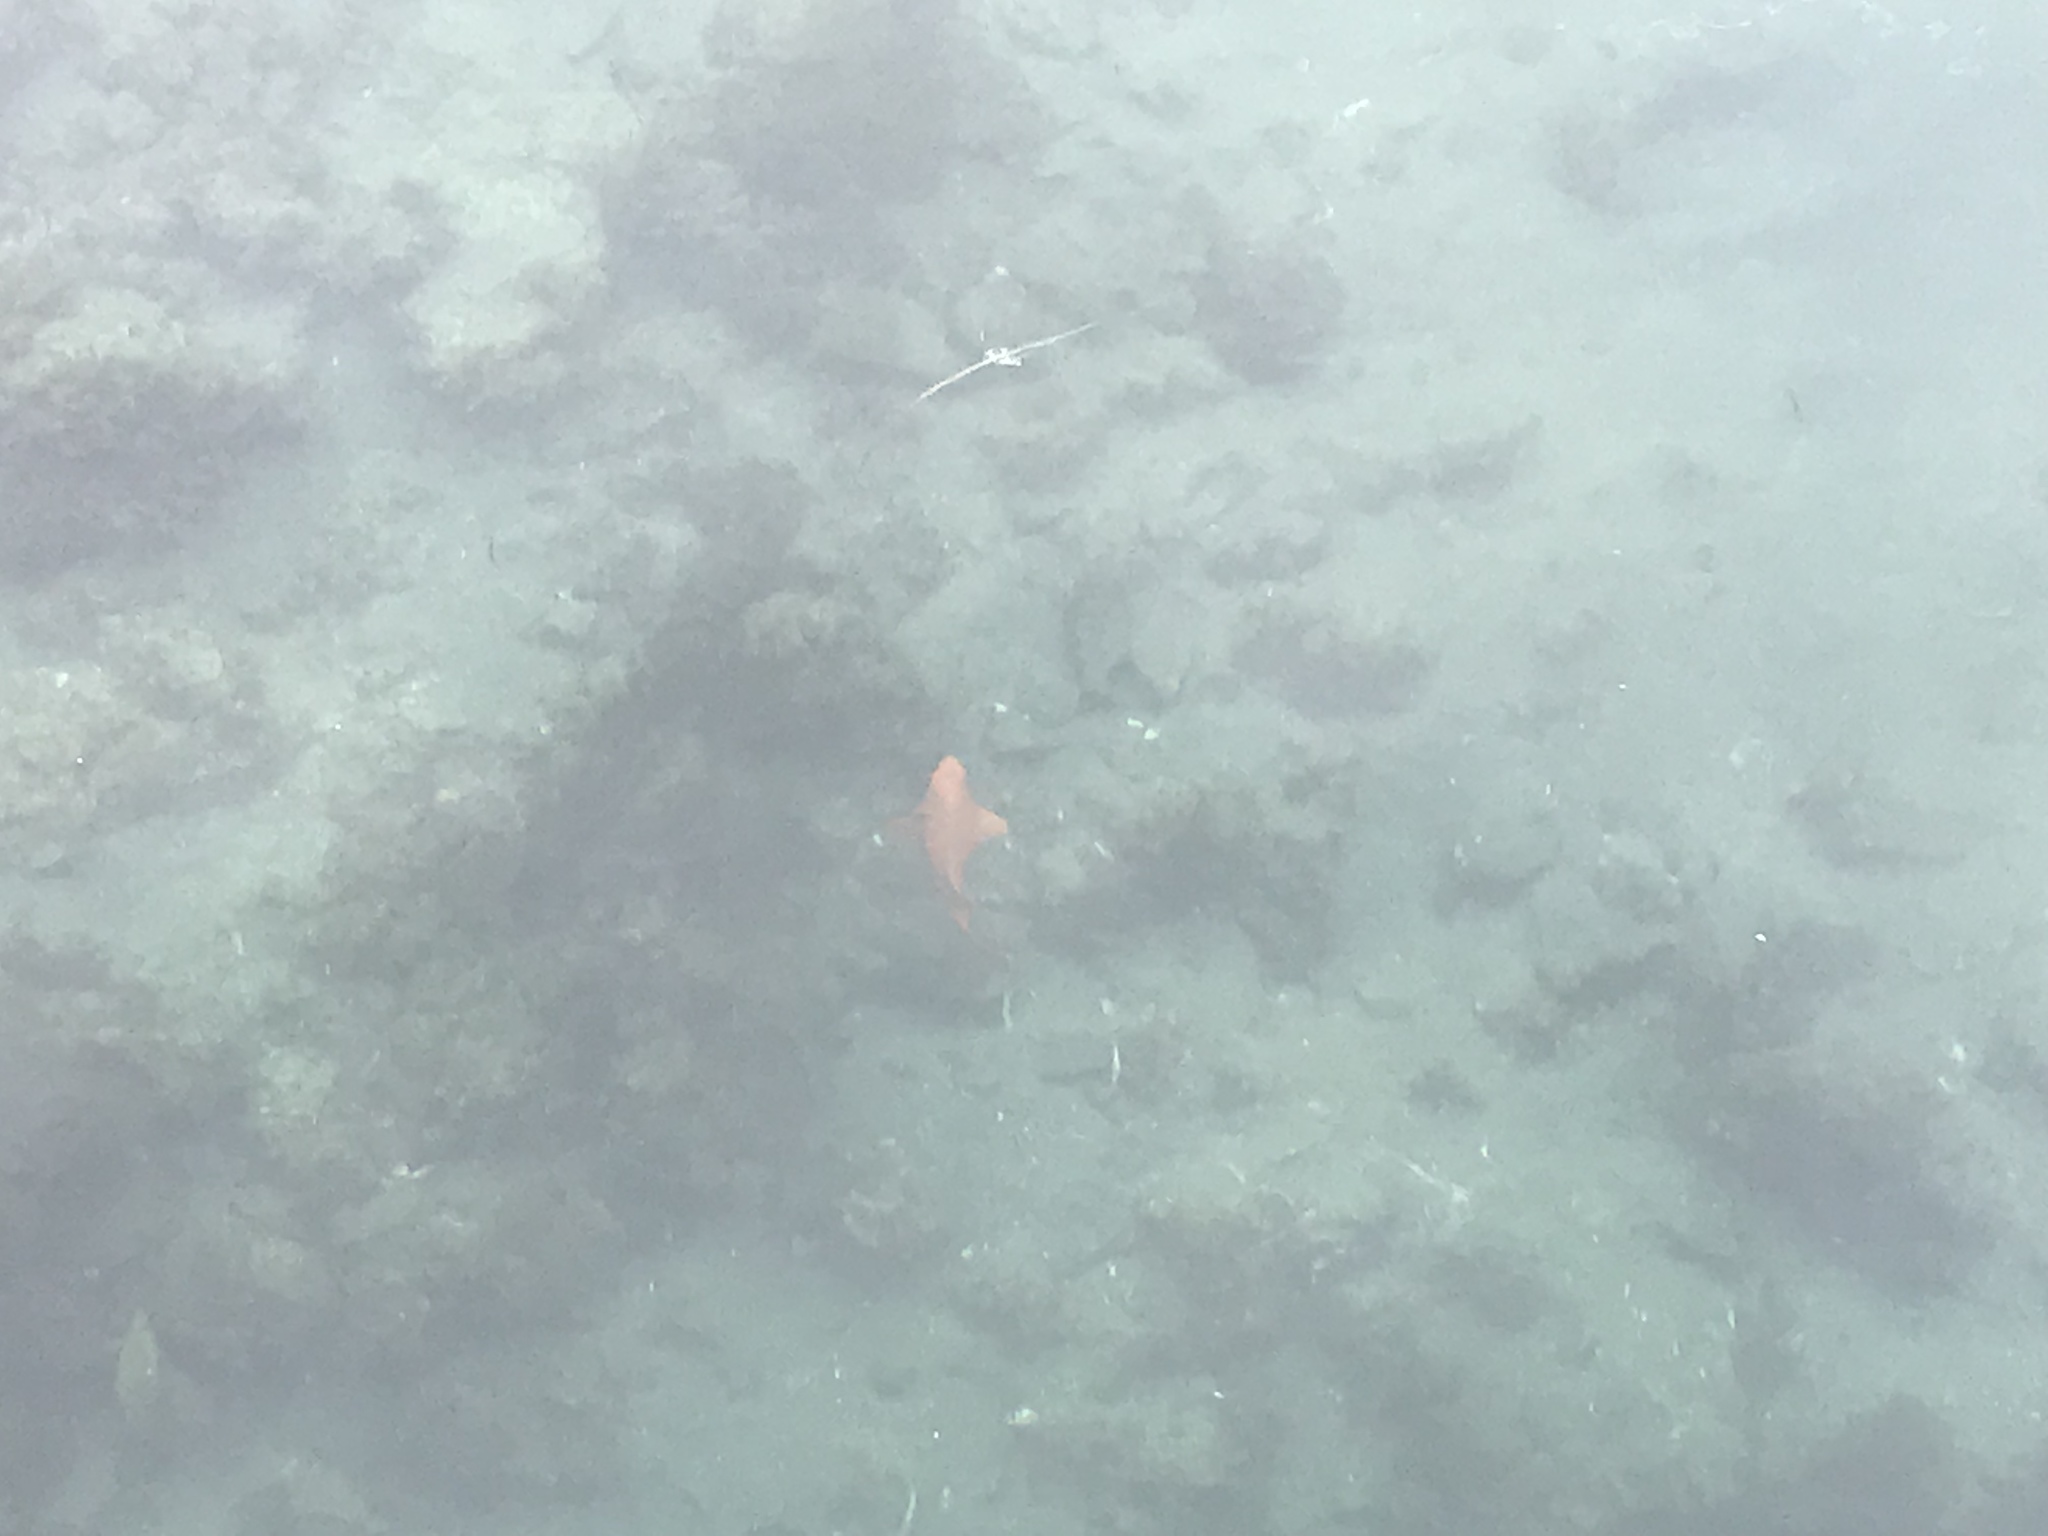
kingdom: Animalia
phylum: Chordata
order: Perciformes
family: Pomacentridae
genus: Hypsypops
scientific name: Hypsypops rubicundus
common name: Garibaldi
